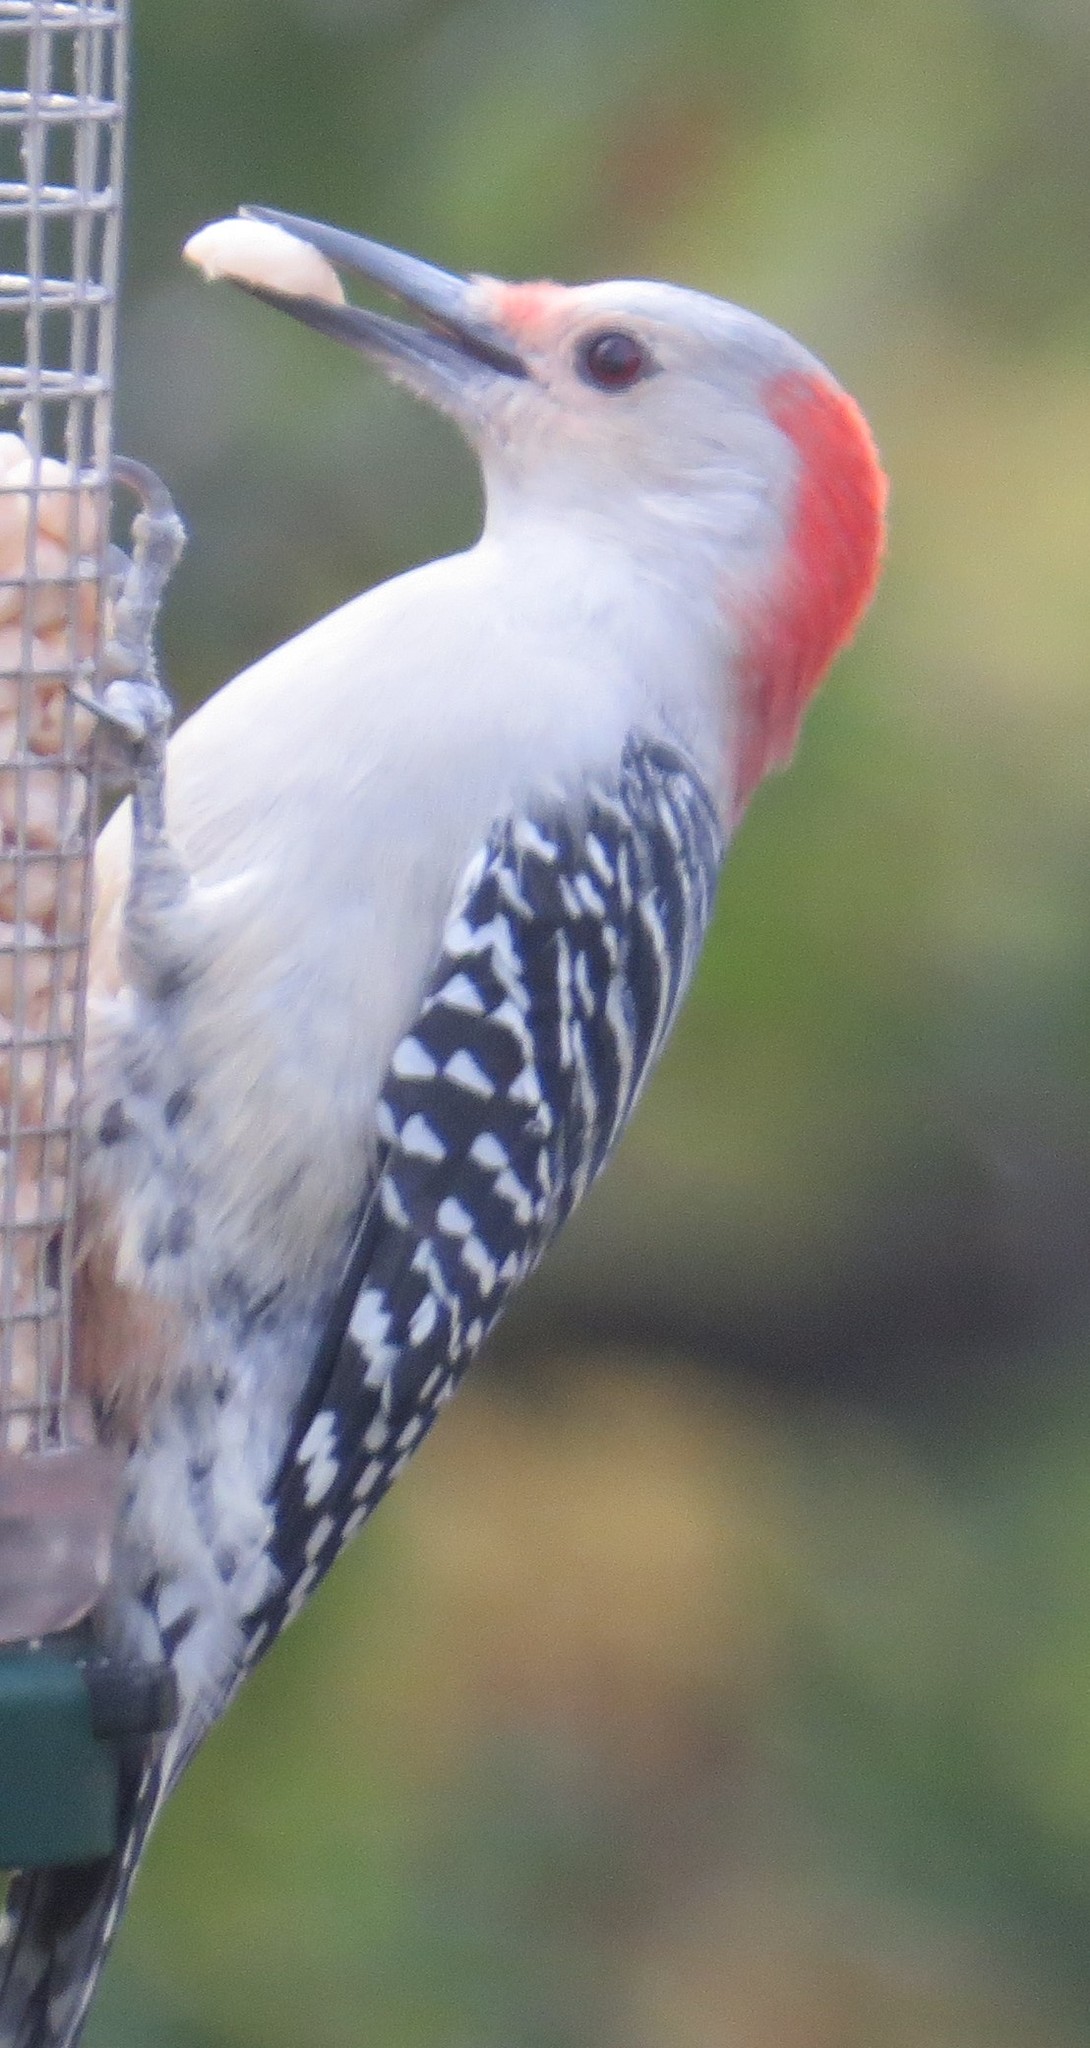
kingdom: Animalia
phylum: Chordata
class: Aves
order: Piciformes
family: Picidae
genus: Melanerpes
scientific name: Melanerpes carolinus
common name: Red-bellied woodpecker
